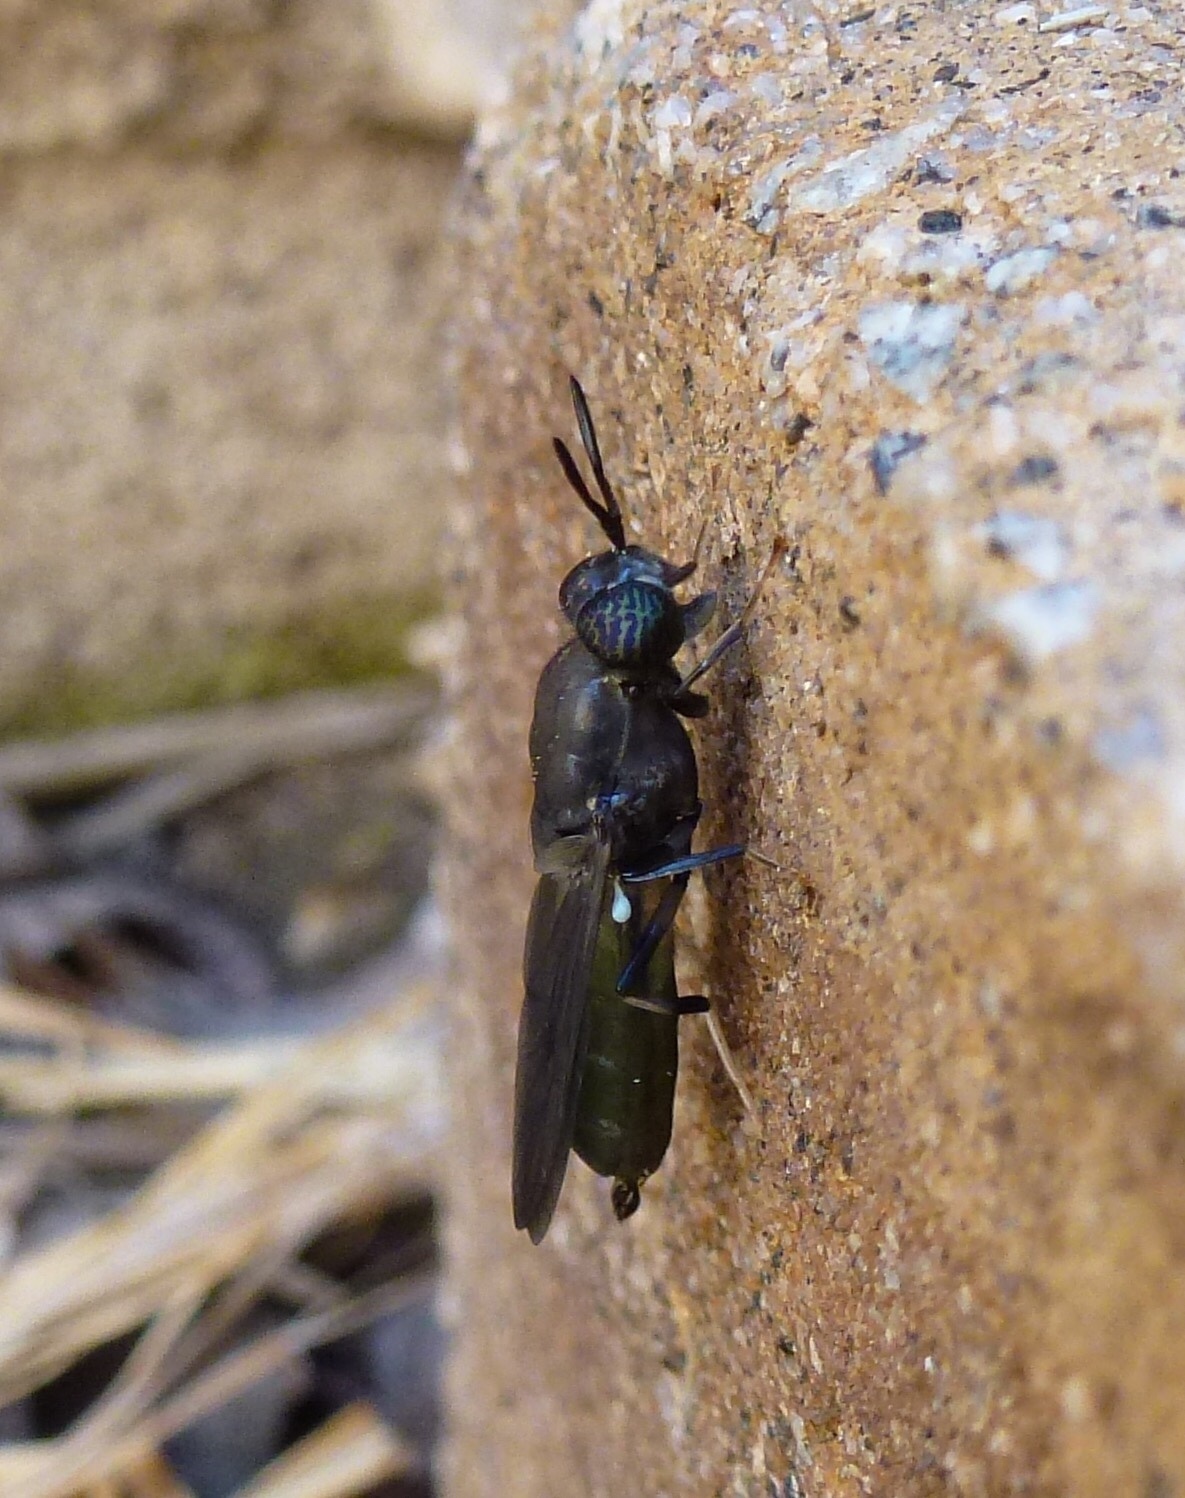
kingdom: Animalia
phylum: Arthropoda
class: Insecta
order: Diptera
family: Stratiomyidae
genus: Hermetia
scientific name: Hermetia illucens
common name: Black soldier fly
